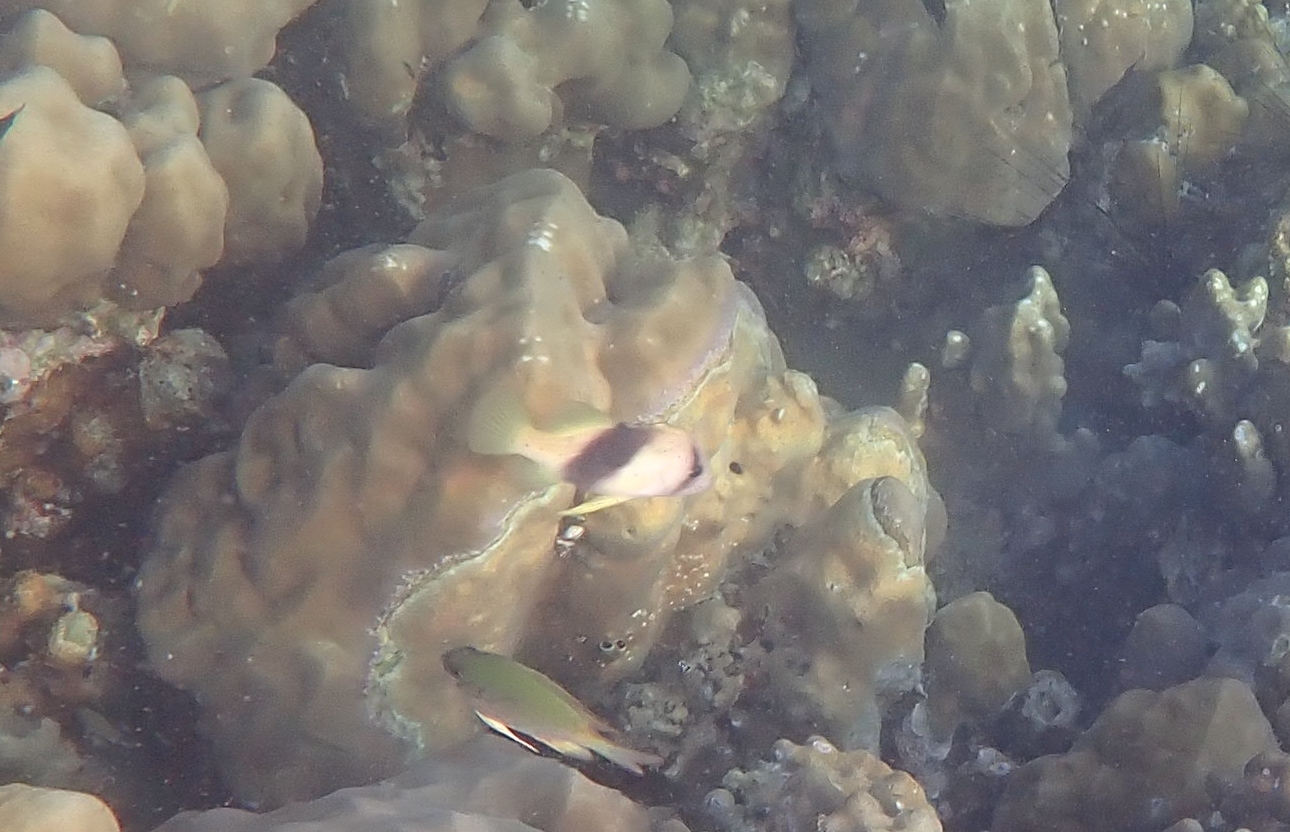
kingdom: Animalia
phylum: Chordata
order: Perciformes
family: Serranidae
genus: Diploprion
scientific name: Diploprion bifasciatum
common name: Barred soapfish
